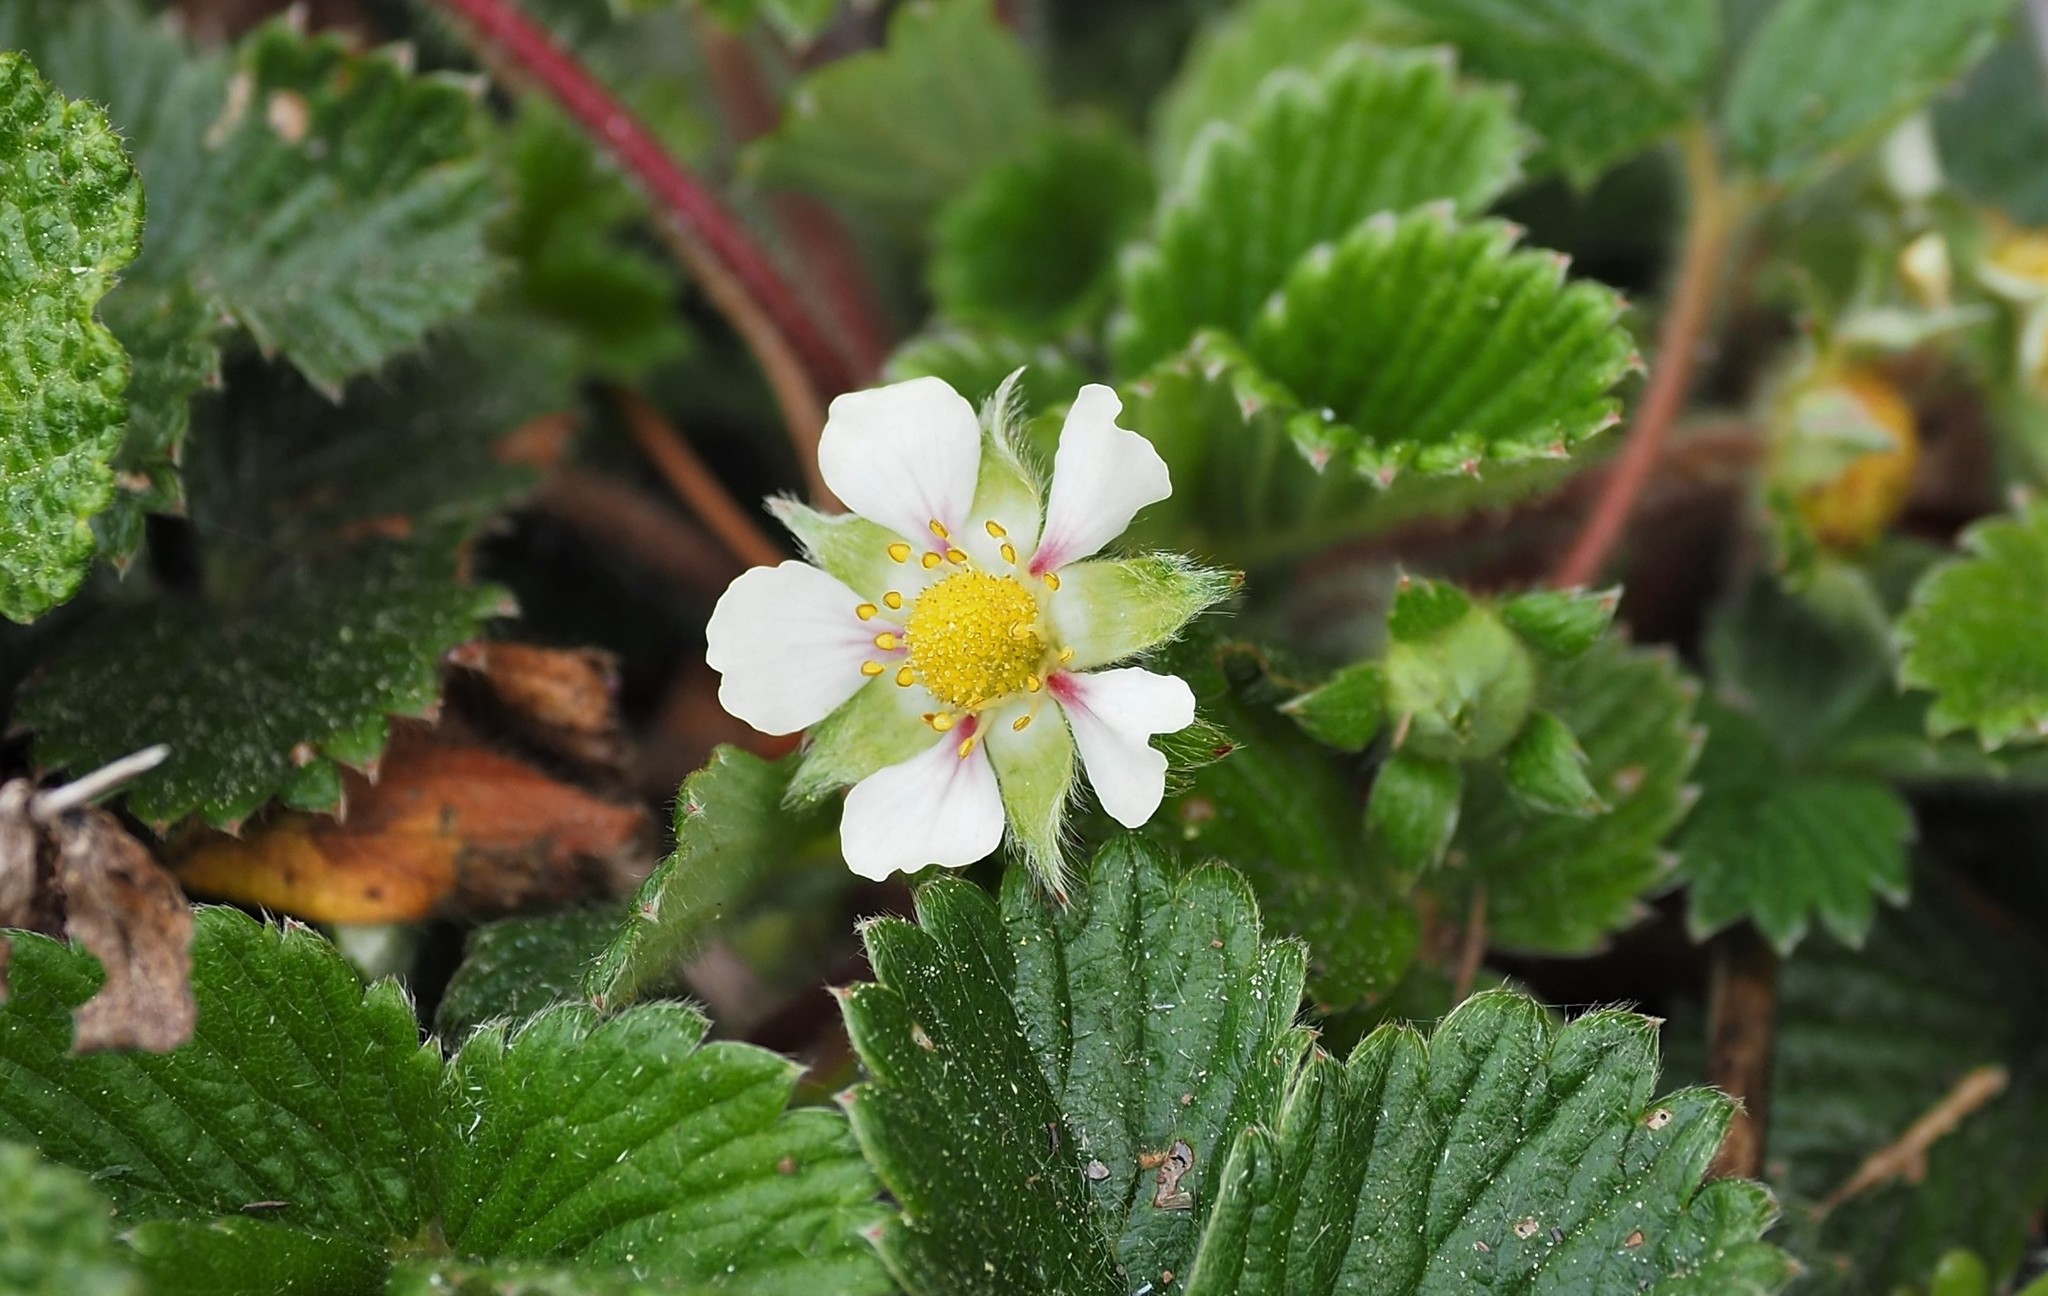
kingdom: Plantae
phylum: Tracheophyta
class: Magnoliopsida
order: Rosales
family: Rosaceae
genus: Fragaria
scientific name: Fragaria nilgerrensis
